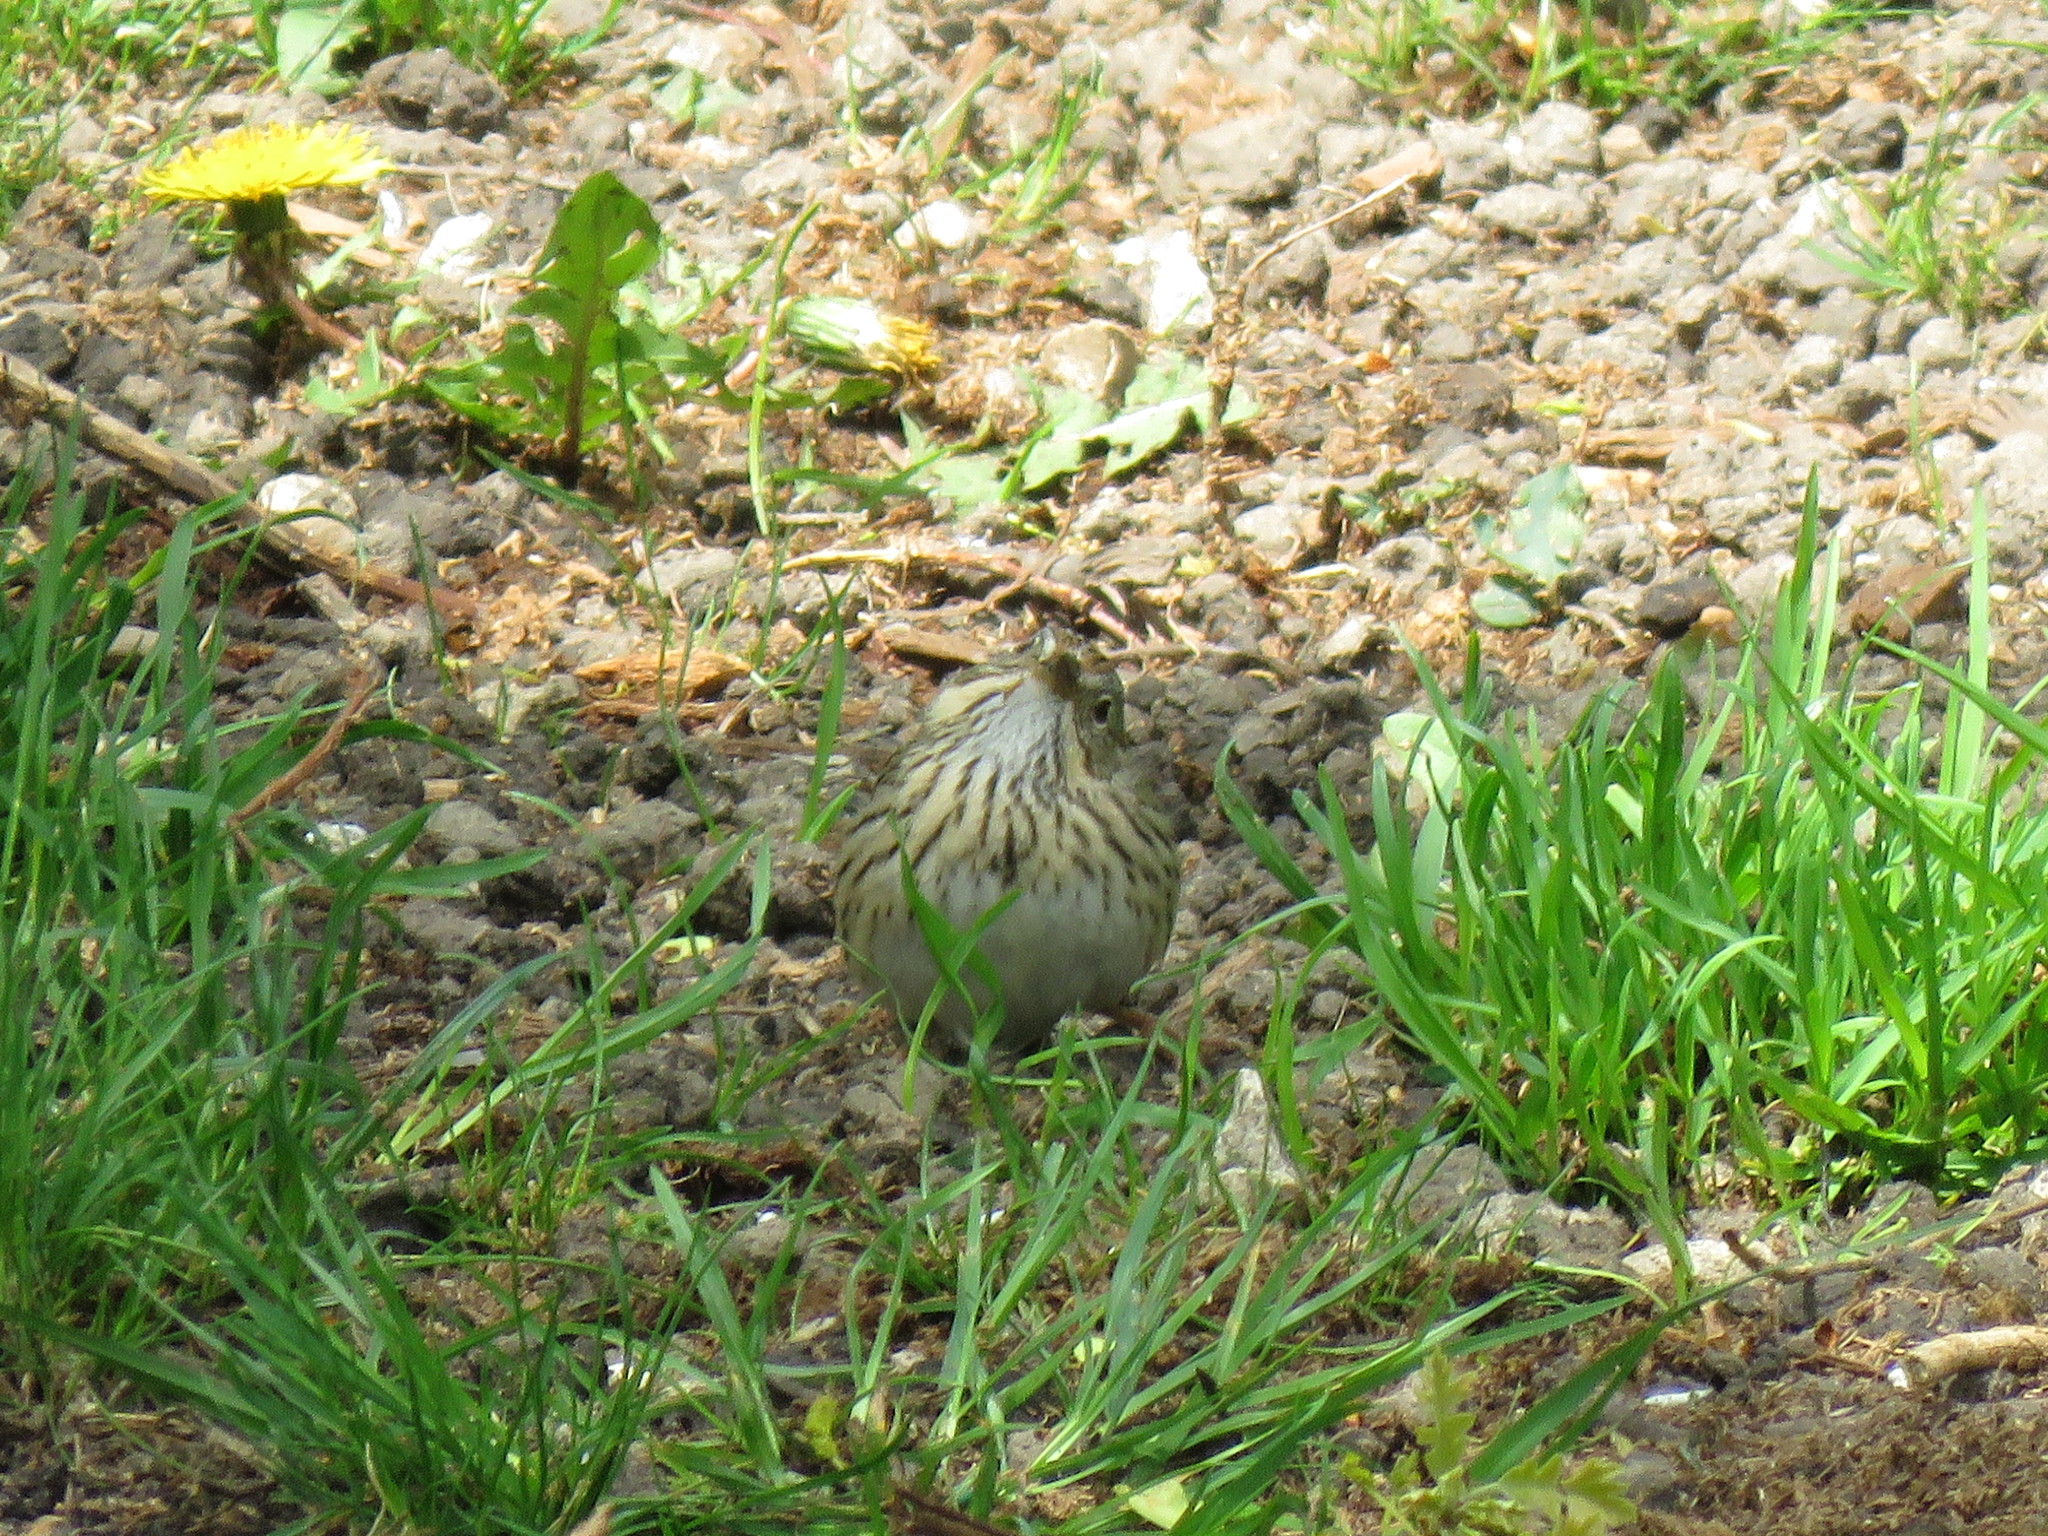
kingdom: Animalia
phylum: Chordata
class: Aves
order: Passeriformes
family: Passerellidae
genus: Melospiza
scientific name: Melospiza lincolnii
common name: Lincoln's sparrow
